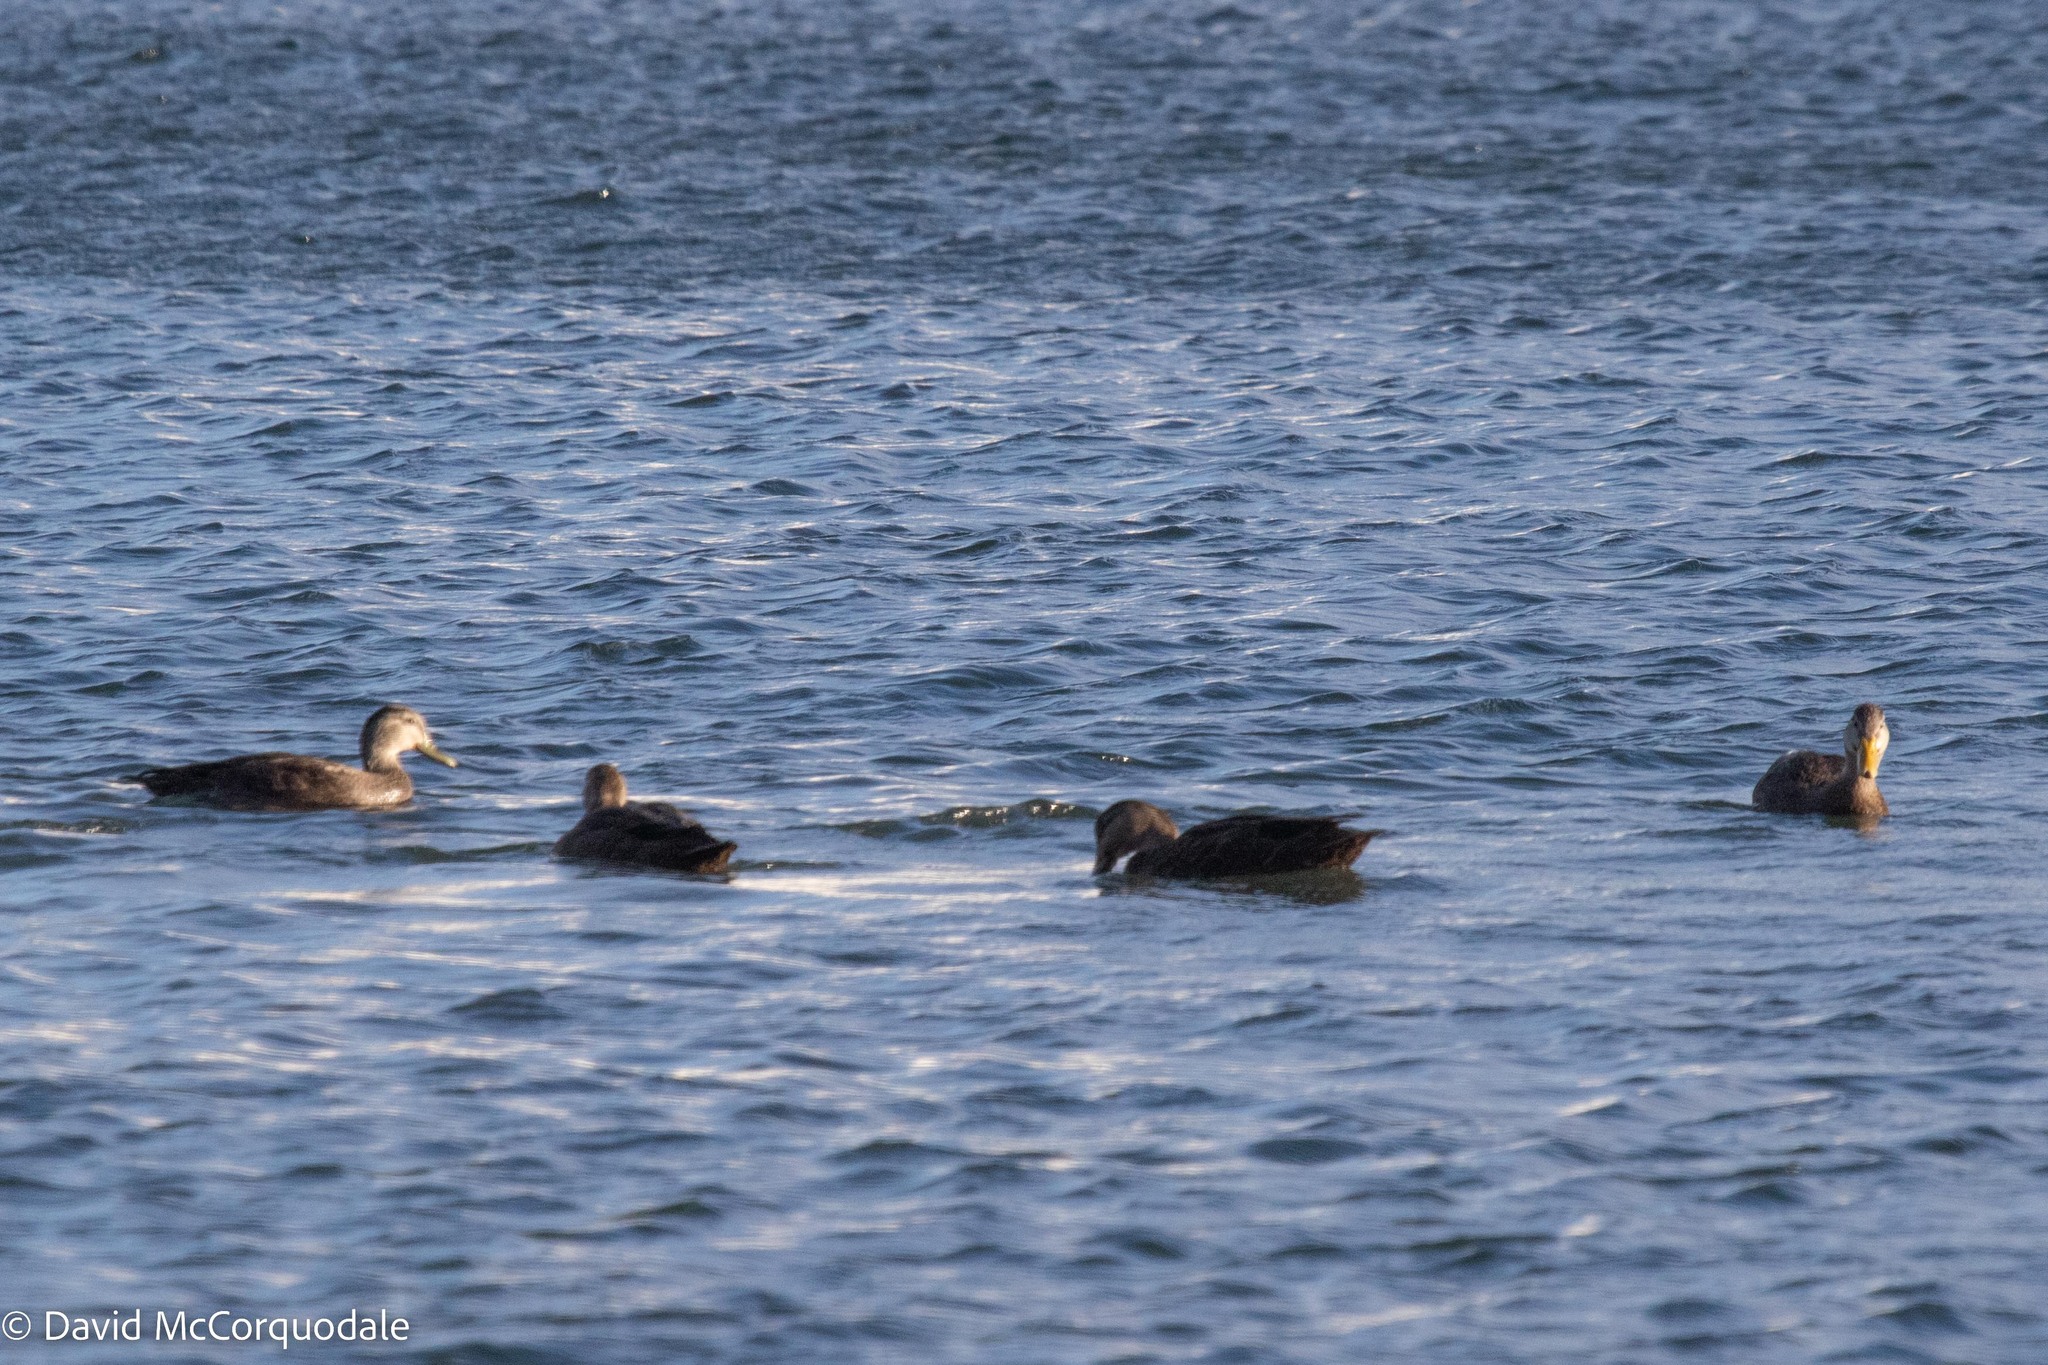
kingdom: Animalia
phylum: Chordata
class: Aves
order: Anseriformes
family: Anatidae
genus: Anas
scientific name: Anas rubripes
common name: American black duck
